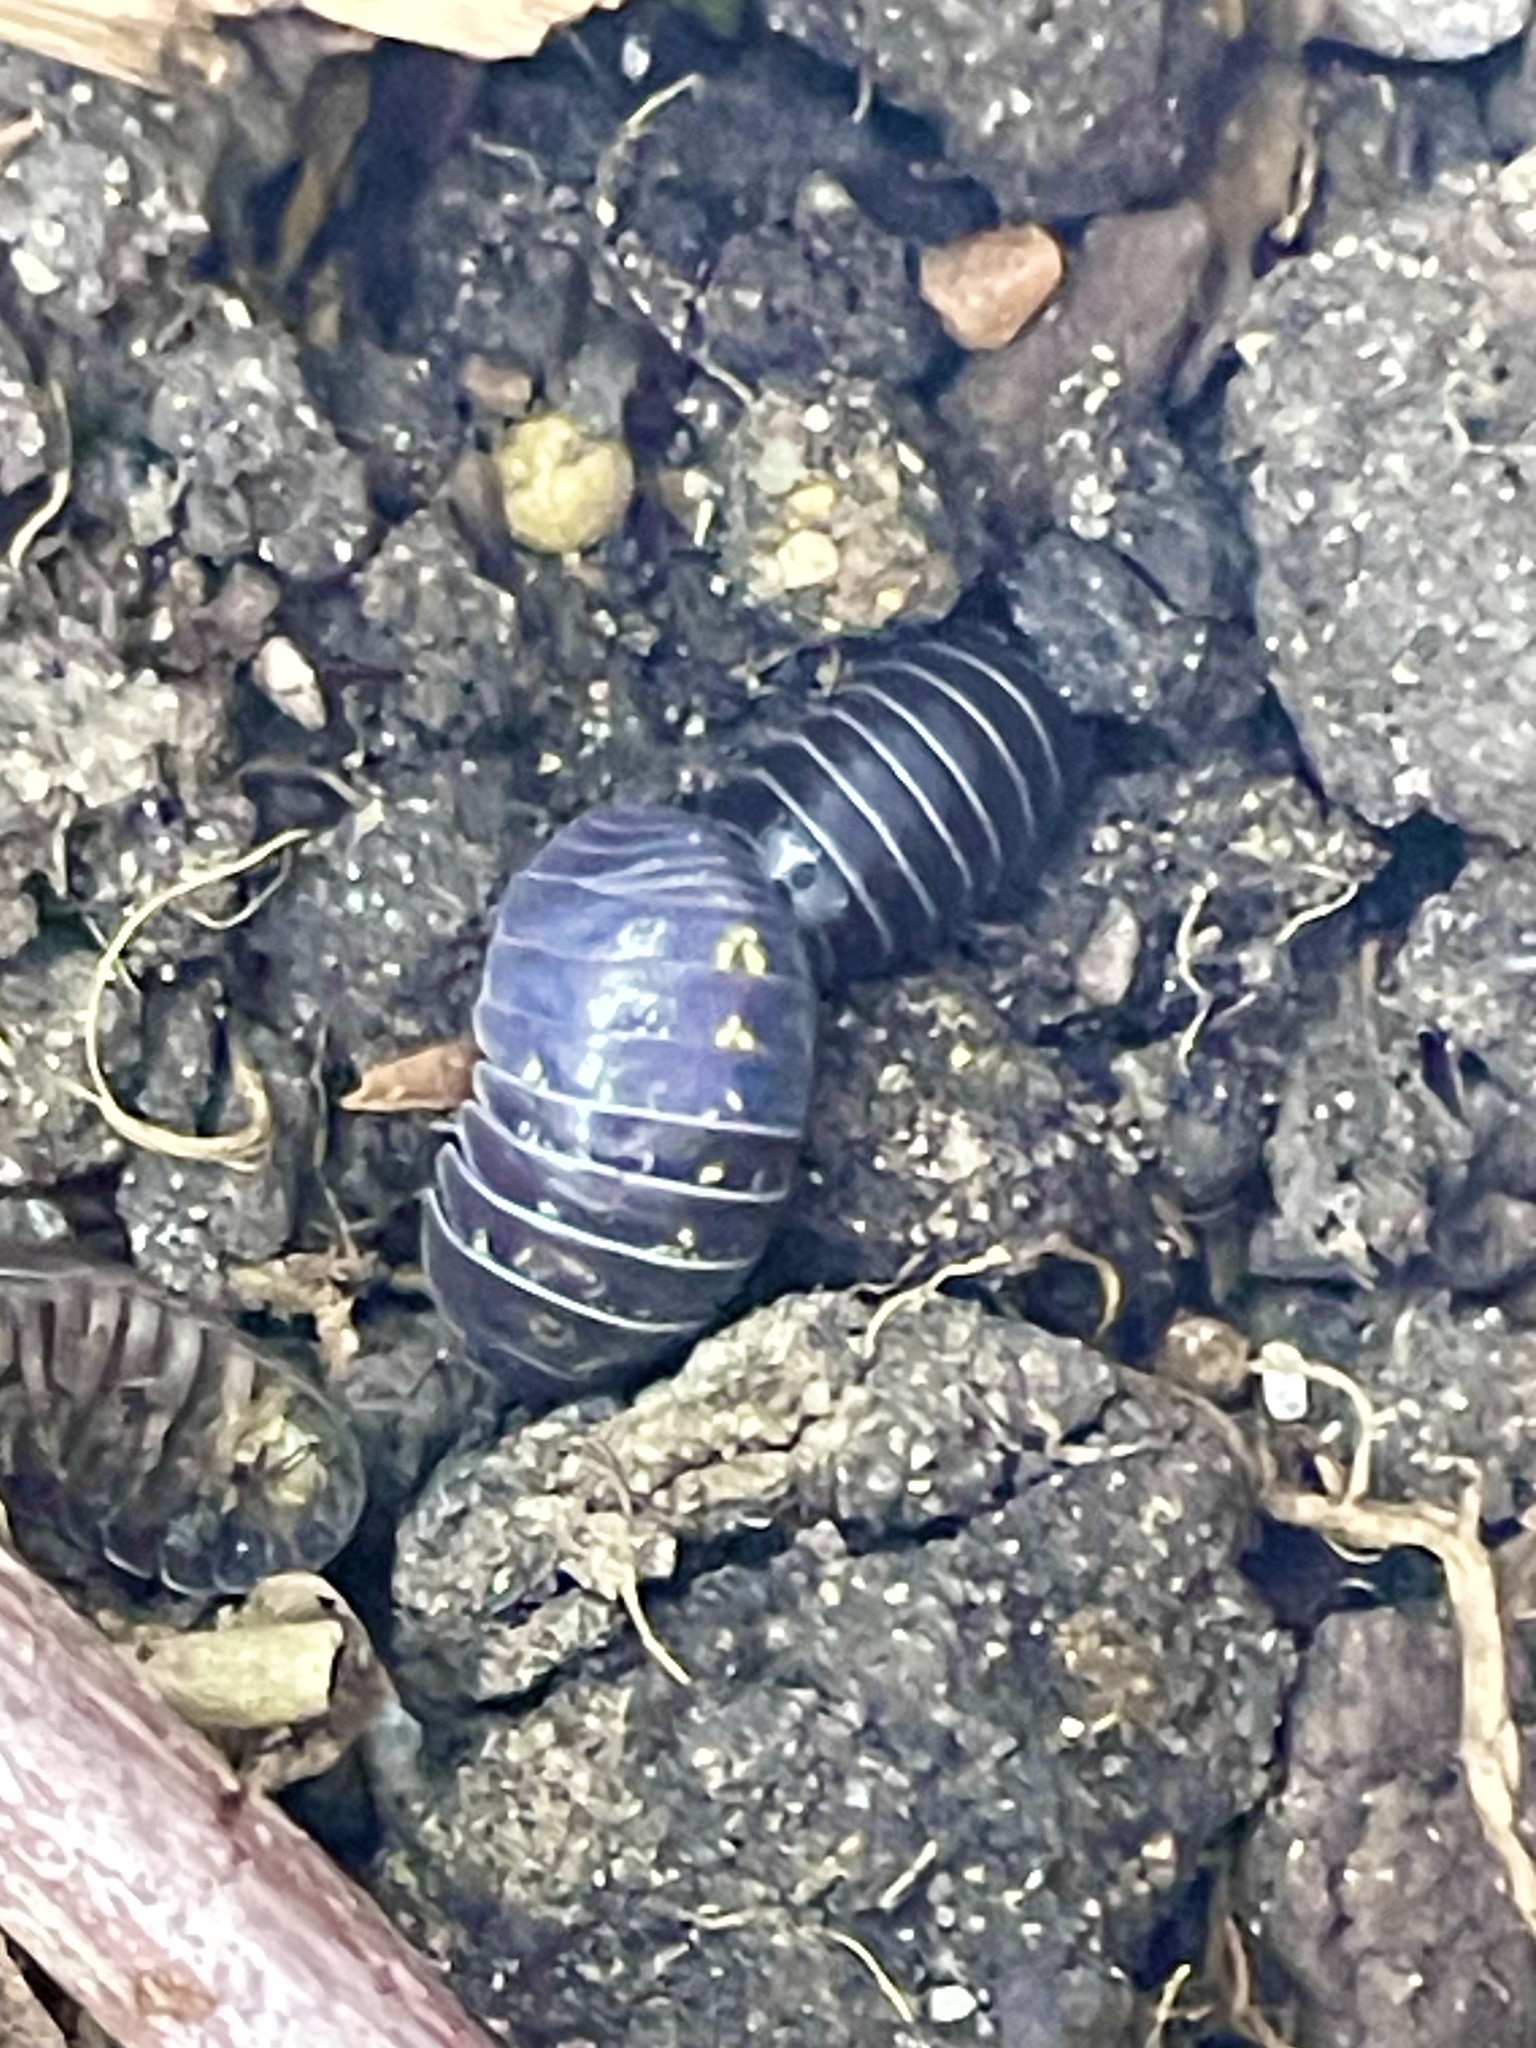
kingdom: Animalia
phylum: Arthropoda
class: Malacostraca
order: Isopoda
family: Armadillidiidae
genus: Armadillidium
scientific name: Armadillidium vulgare
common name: Common pill woodlouse
